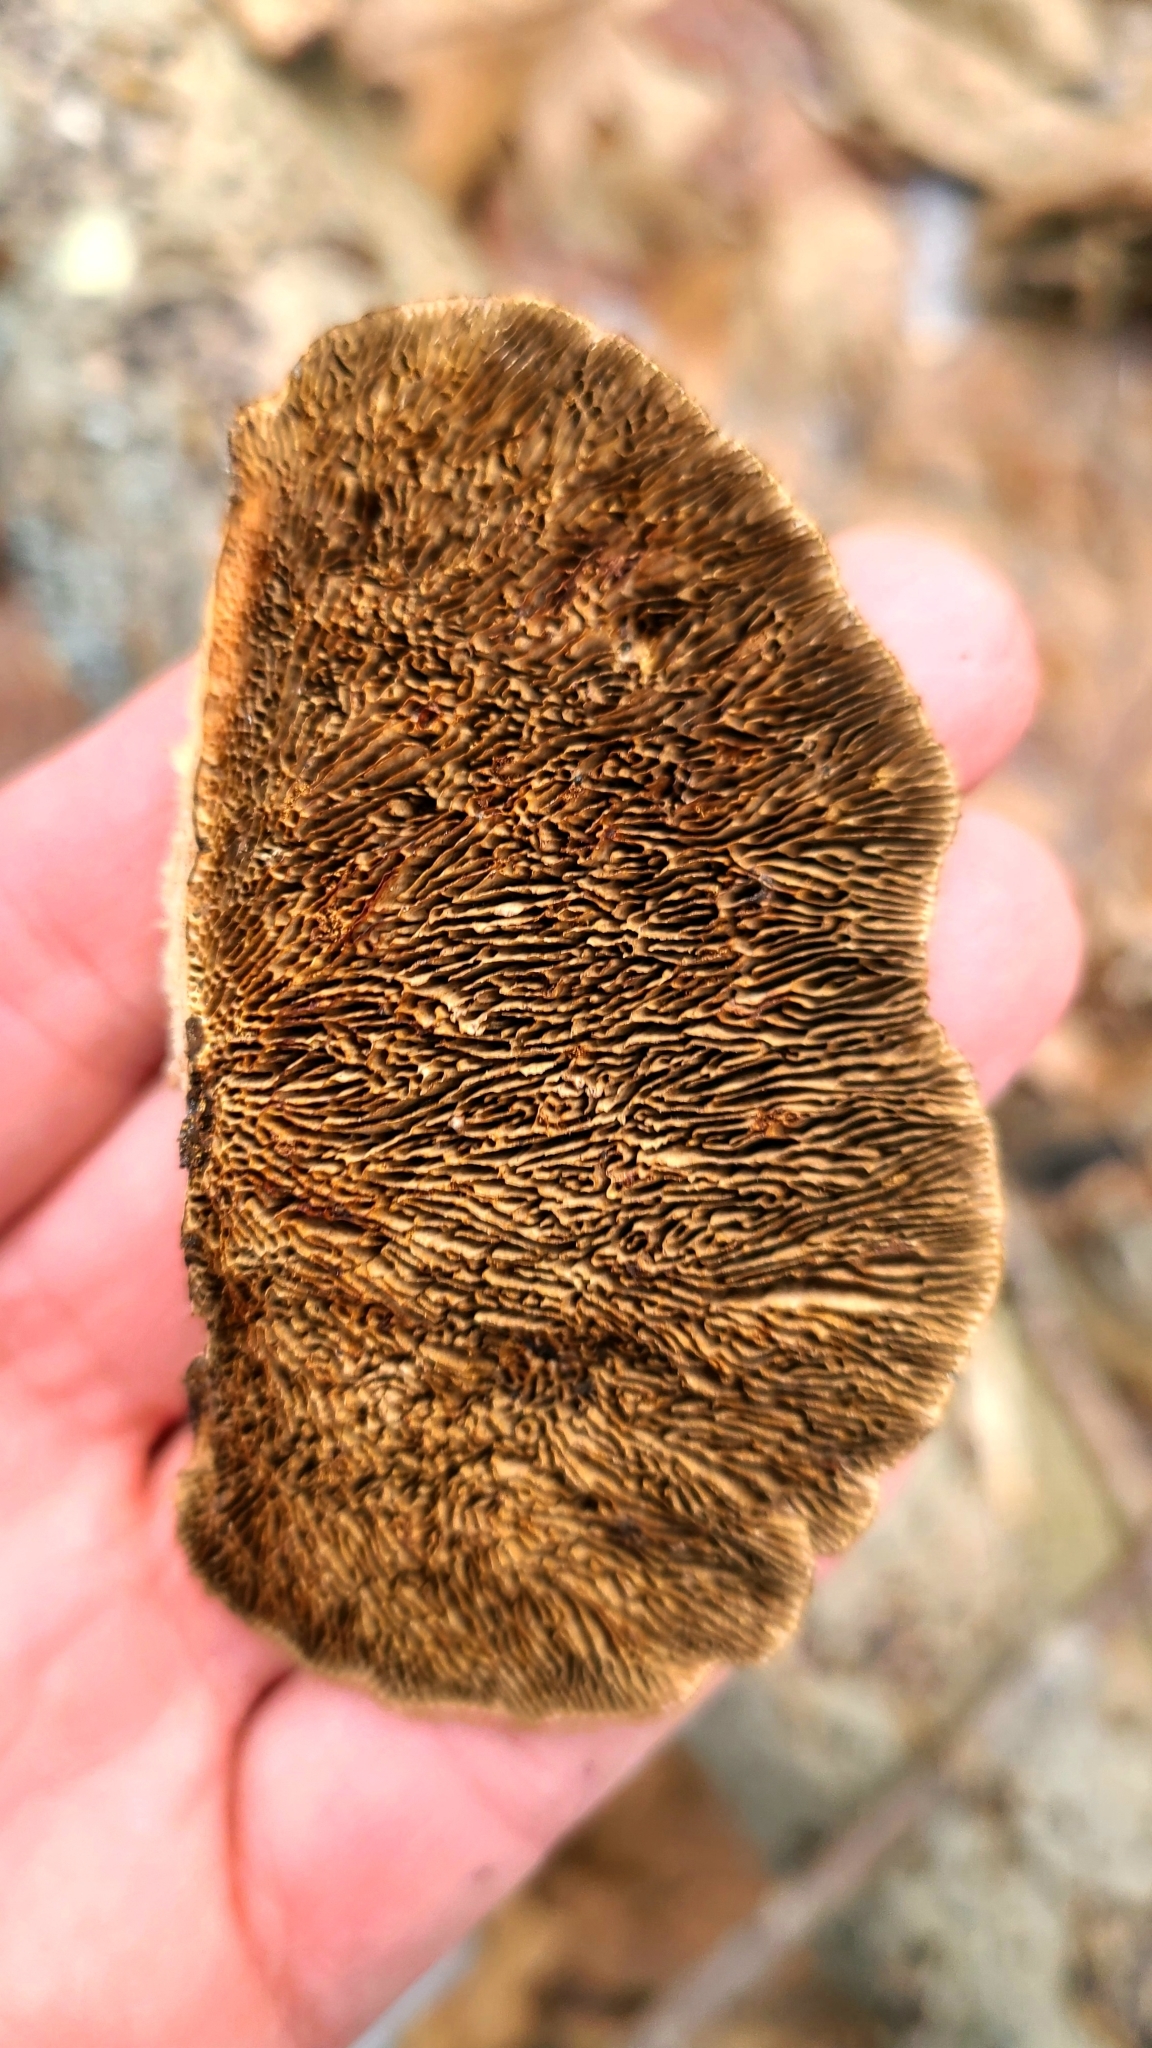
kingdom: Fungi
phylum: Basidiomycota
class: Agaricomycetes
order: Polyporales
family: Polyporaceae
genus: Daedaleopsis
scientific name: Daedaleopsis confragosa
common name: Blushing bracket
